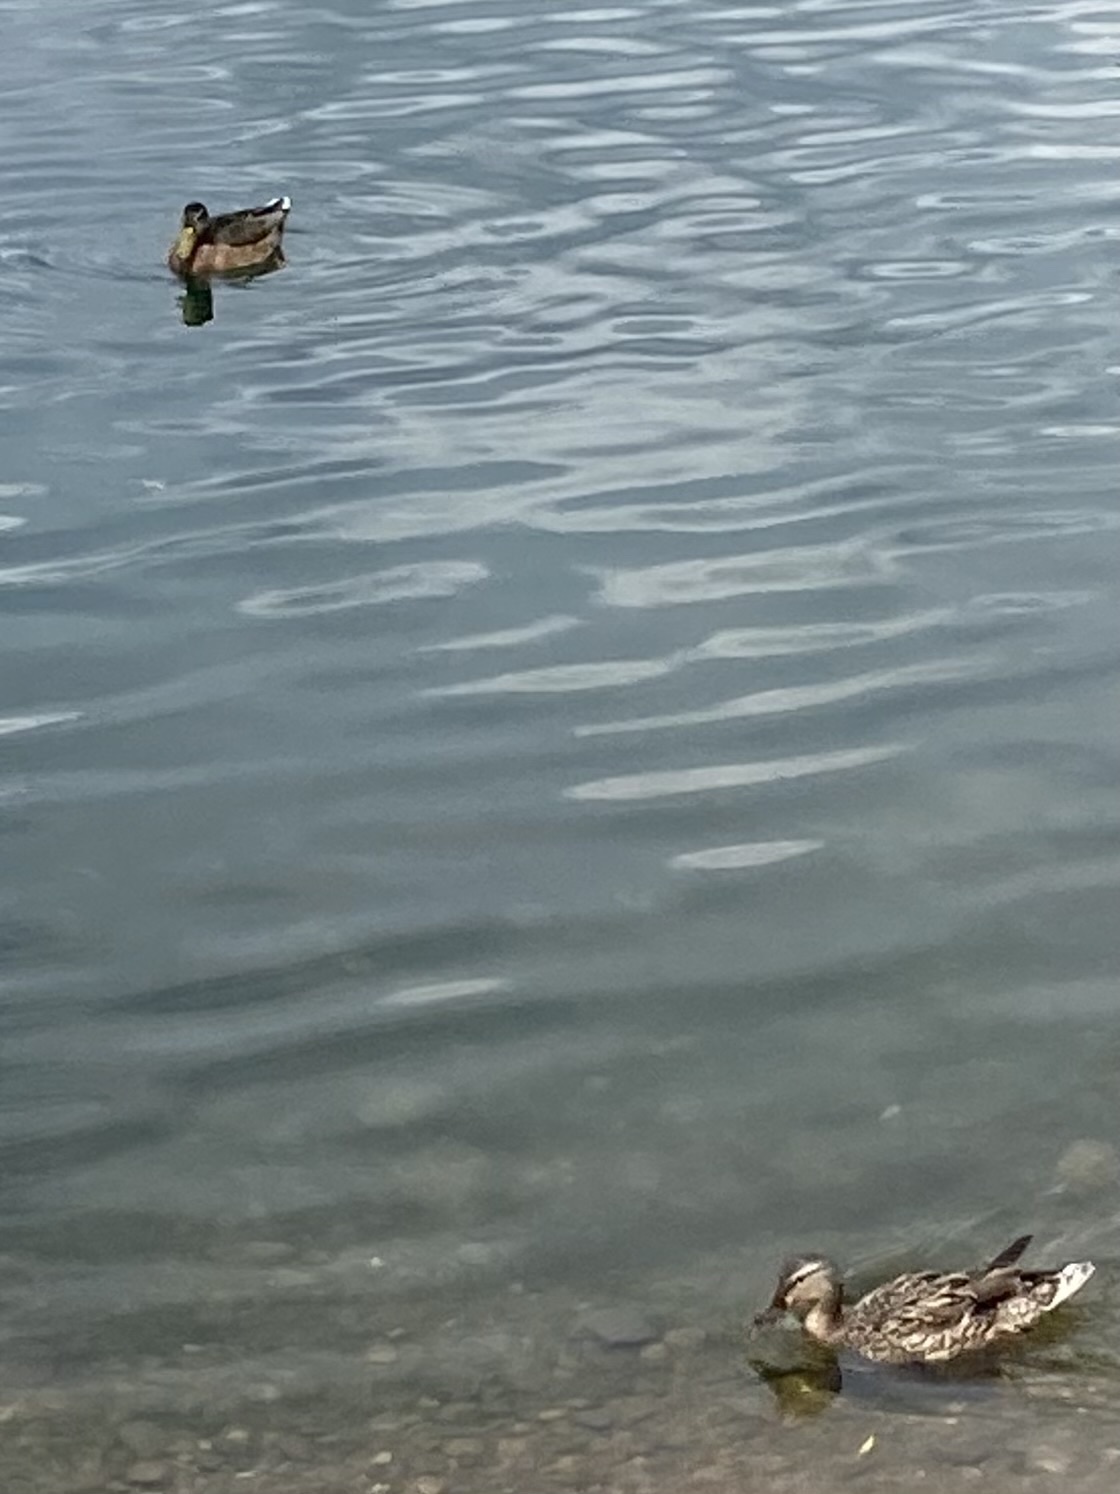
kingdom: Animalia
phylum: Chordata
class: Aves
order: Anseriformes
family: Anatidae
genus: Anas
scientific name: Anas platyrhynchos
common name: Mallard
